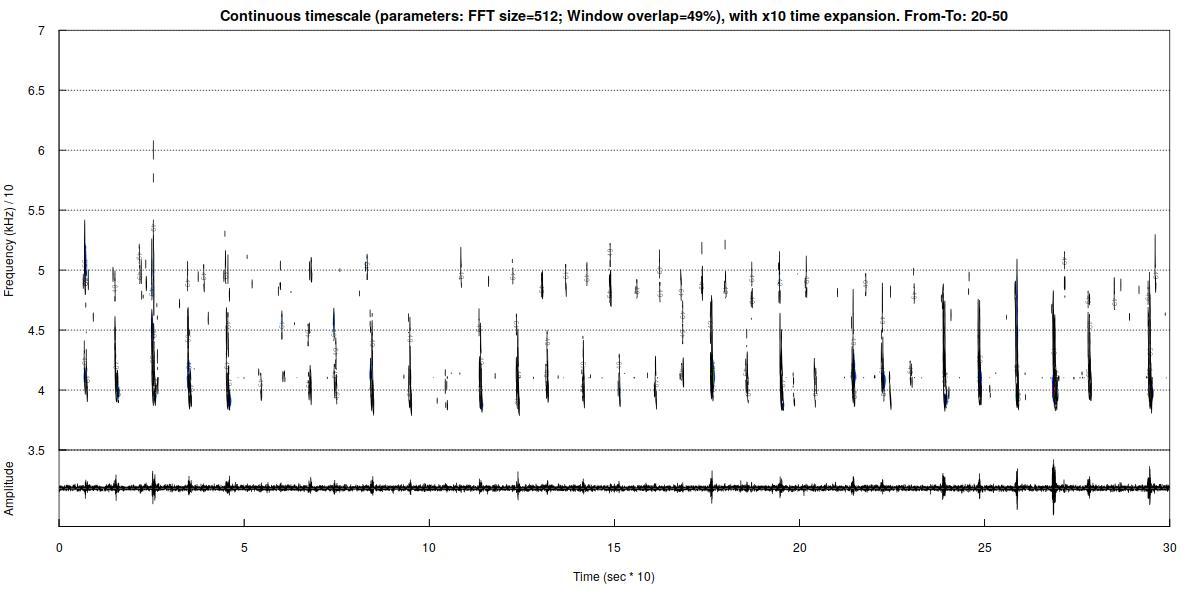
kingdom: Animalia
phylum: Chordata
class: Mammalia
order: Chiroptera
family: Vespertilionidae
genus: Pipistrellus
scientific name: Pipistrellus nathusii
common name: Nathusius's pipistrelle
